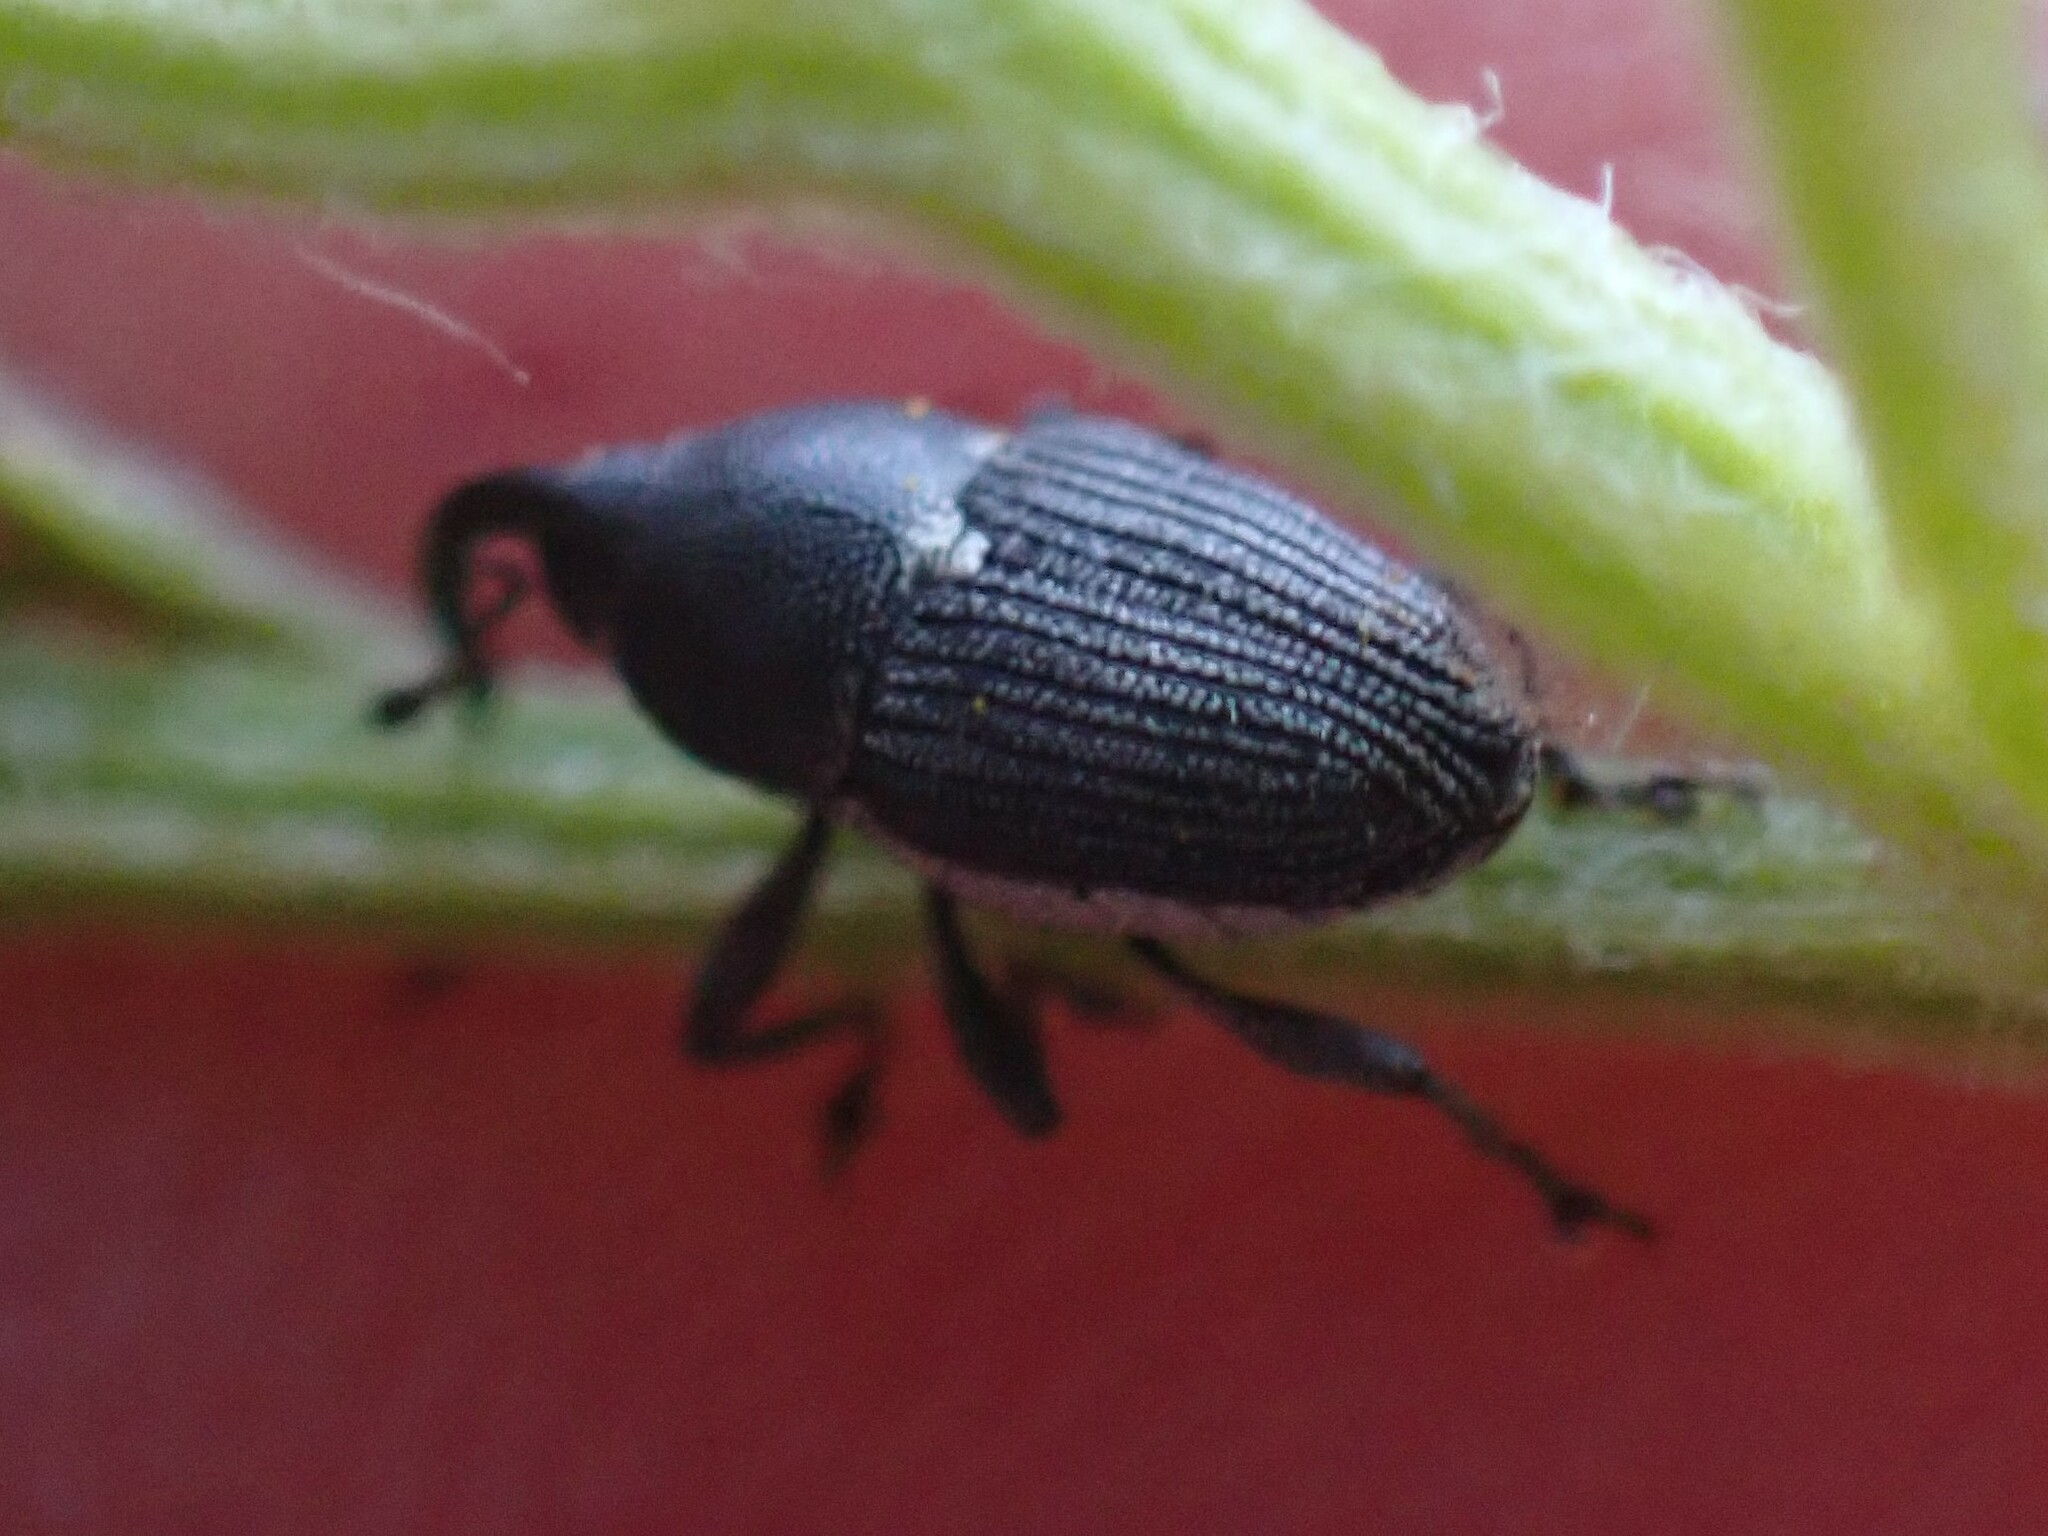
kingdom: Animalia
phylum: Arthropoda
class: Insecta
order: Coleoptera
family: Curculionidae
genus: Odontocorynus
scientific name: Odontocorynus salebrosus
